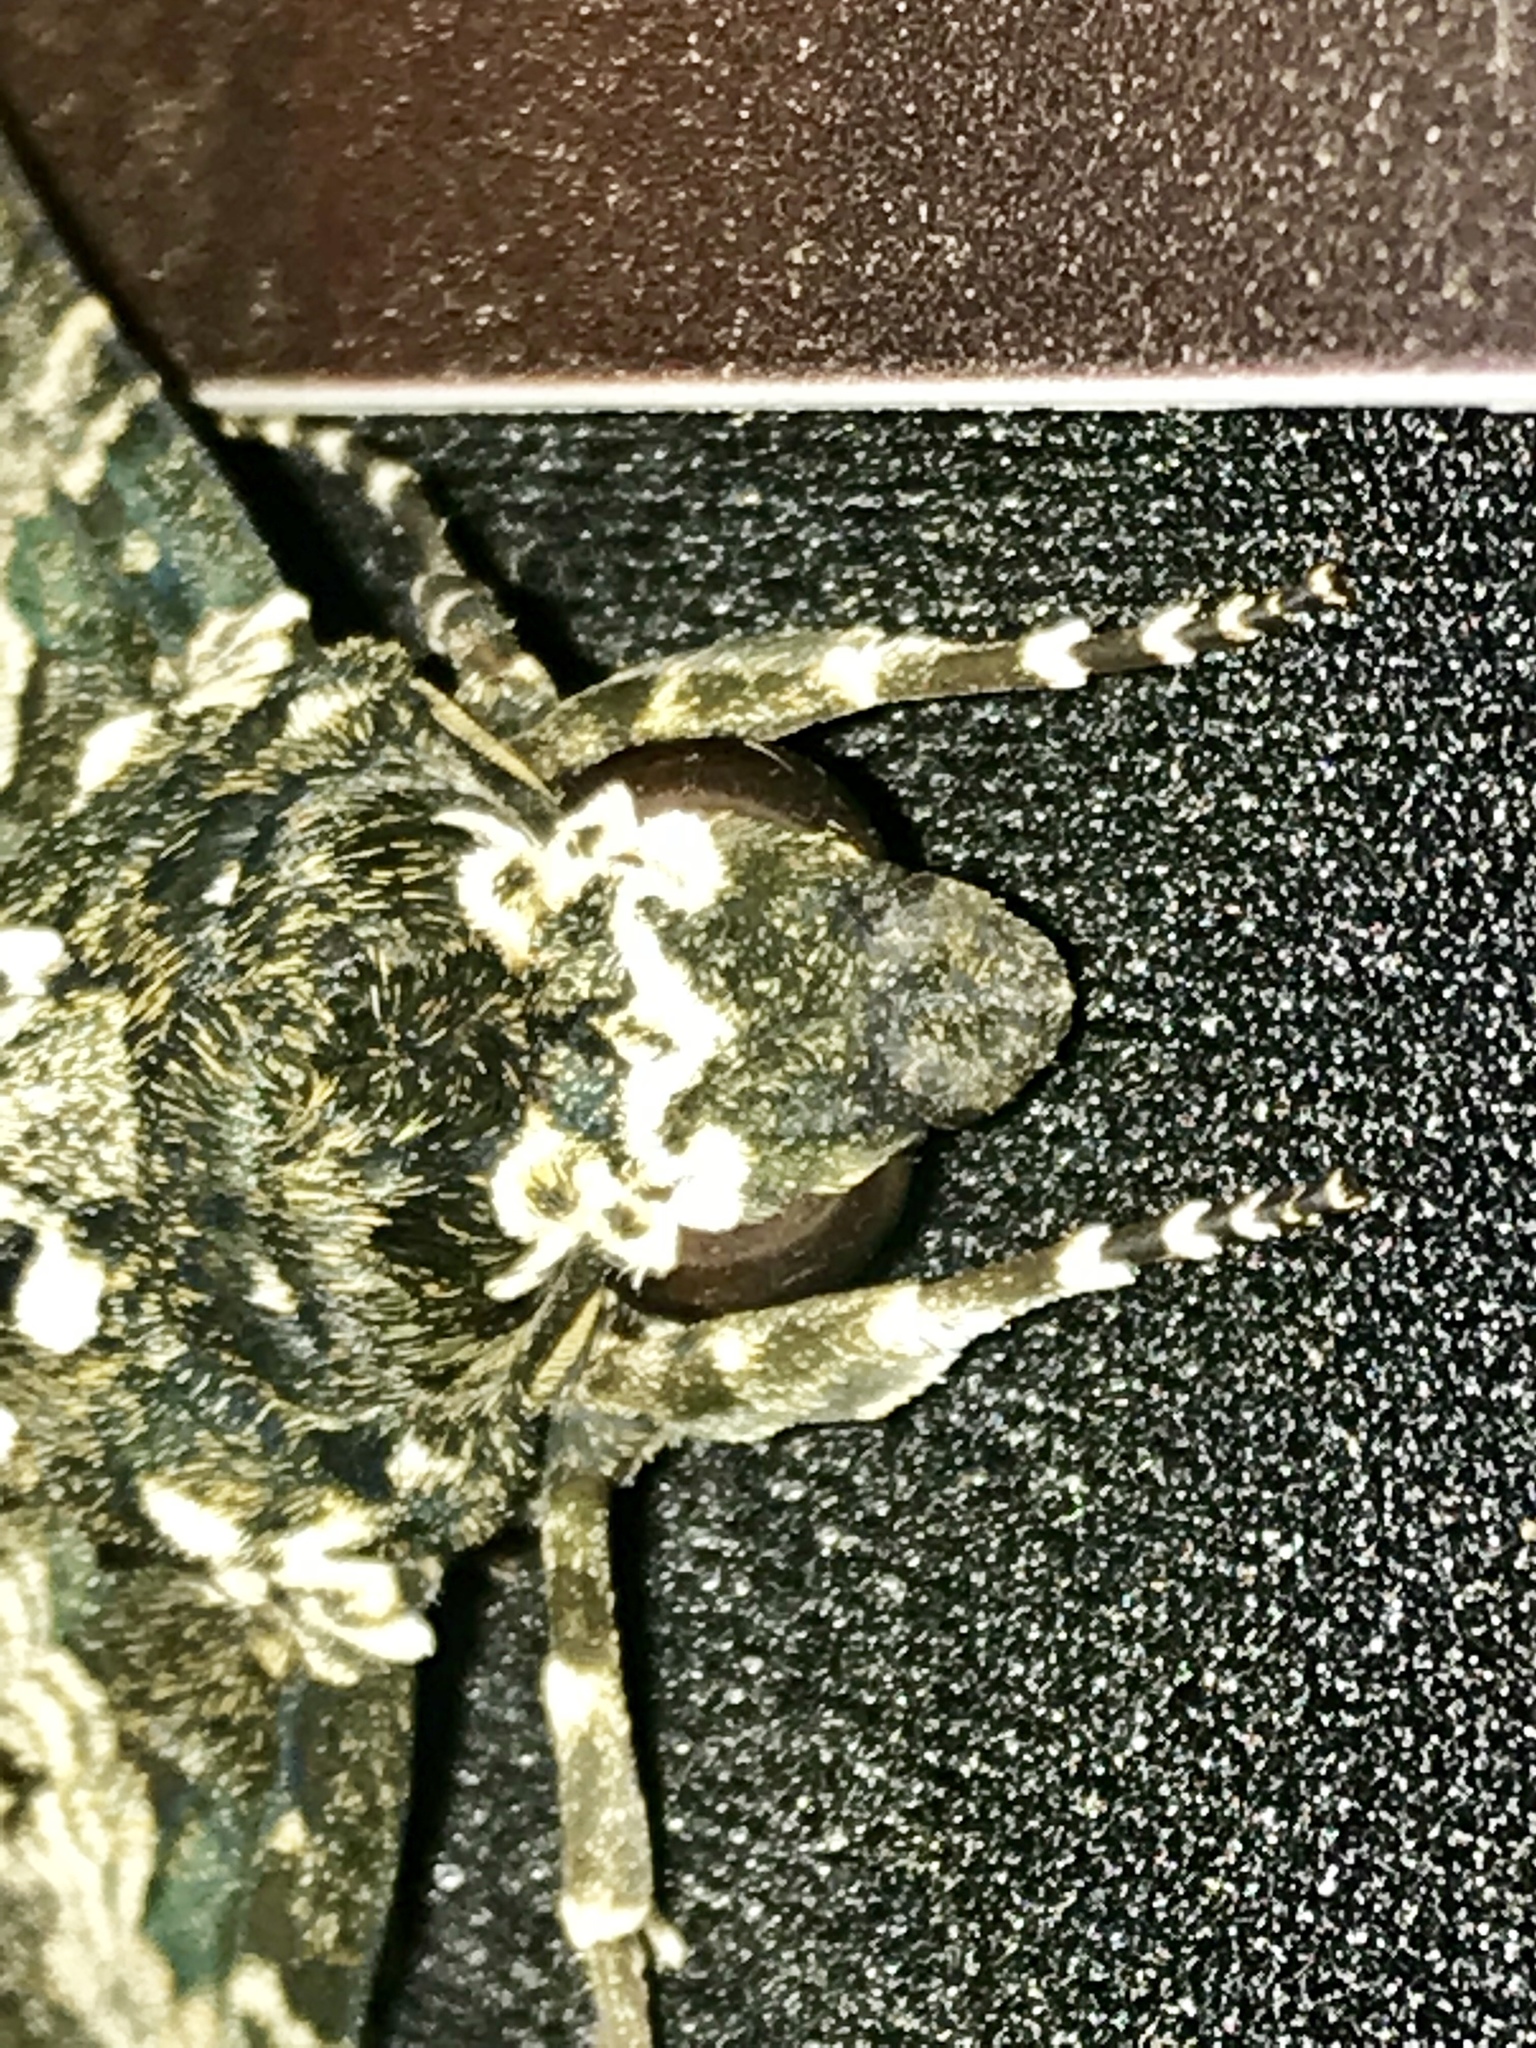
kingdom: Animalia
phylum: Arthropoda
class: Insecta
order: Lepidoptera
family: Sphingidae
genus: Manduca
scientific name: Manduca rustica
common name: Rustic sphinx
